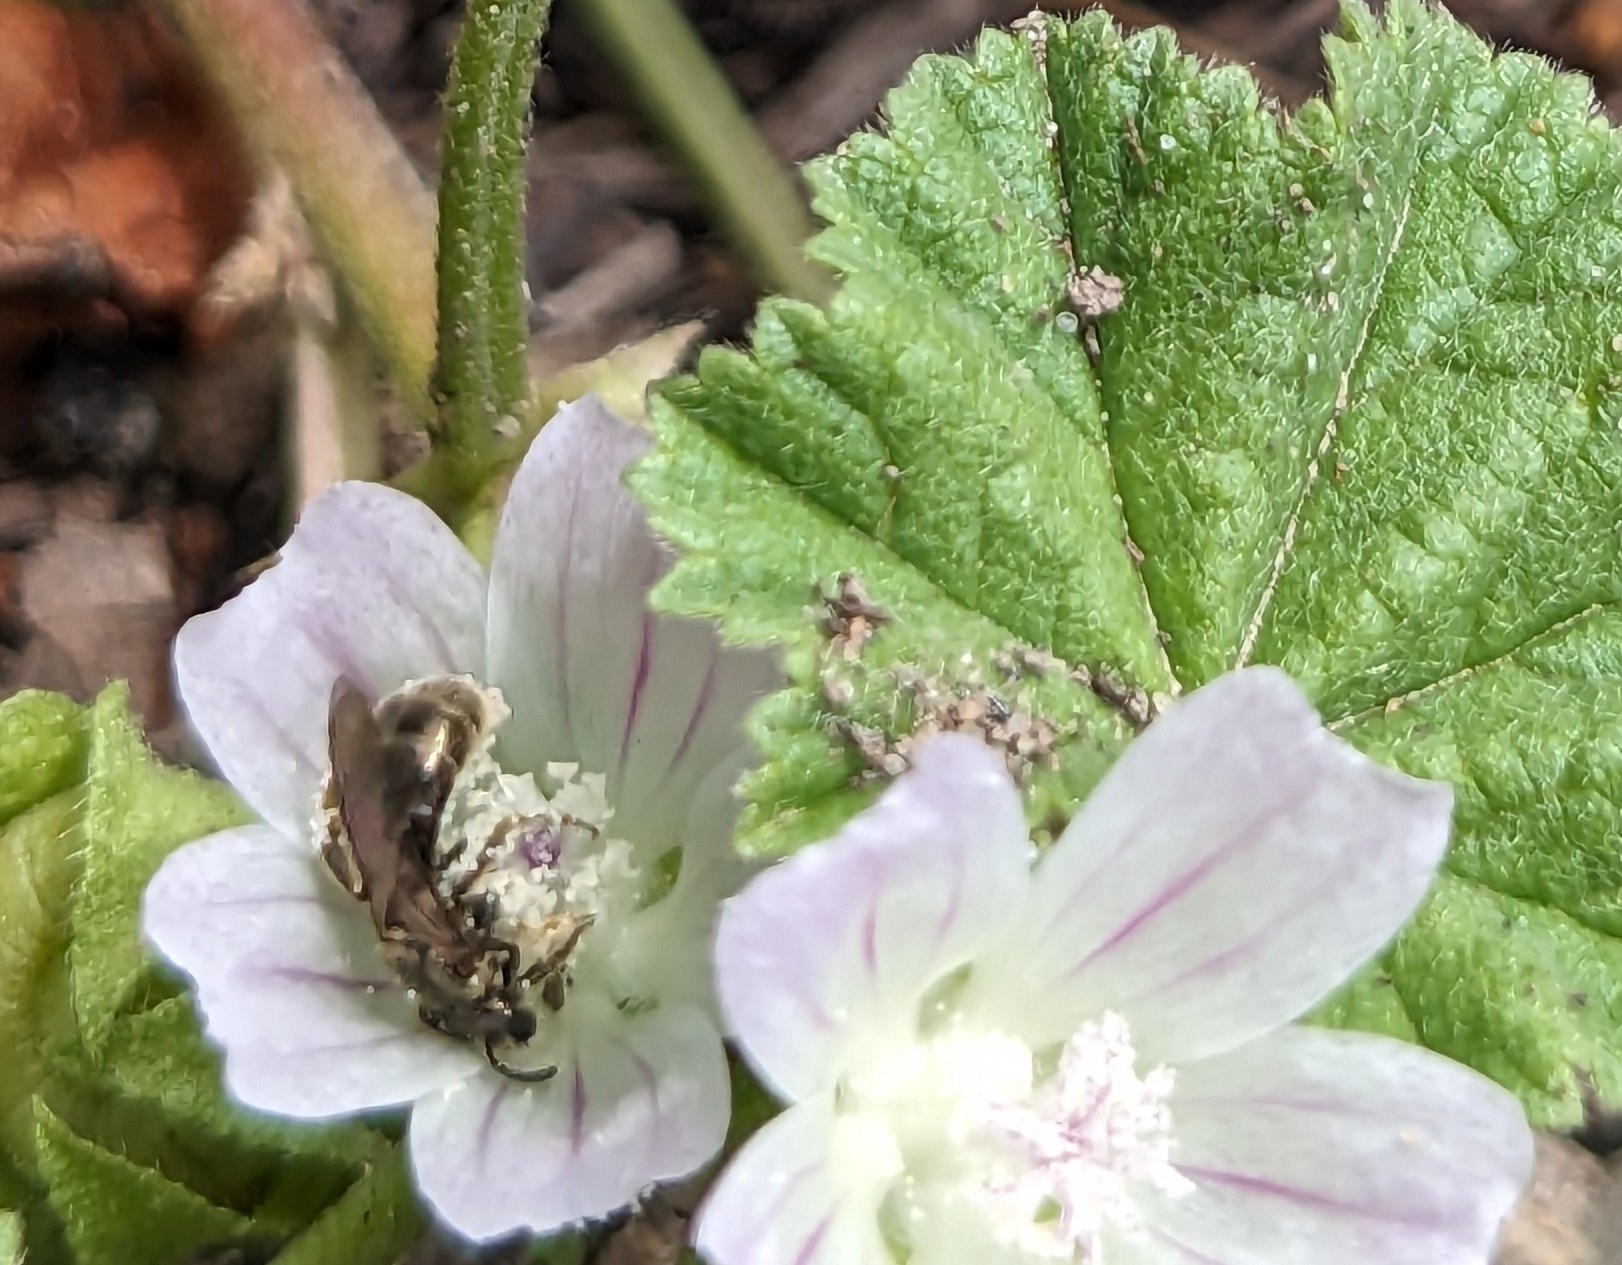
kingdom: Animalia
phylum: Arthropoda
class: Insecta
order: Hymenoptera
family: Halictidae
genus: Dialictus
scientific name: Dialictus
